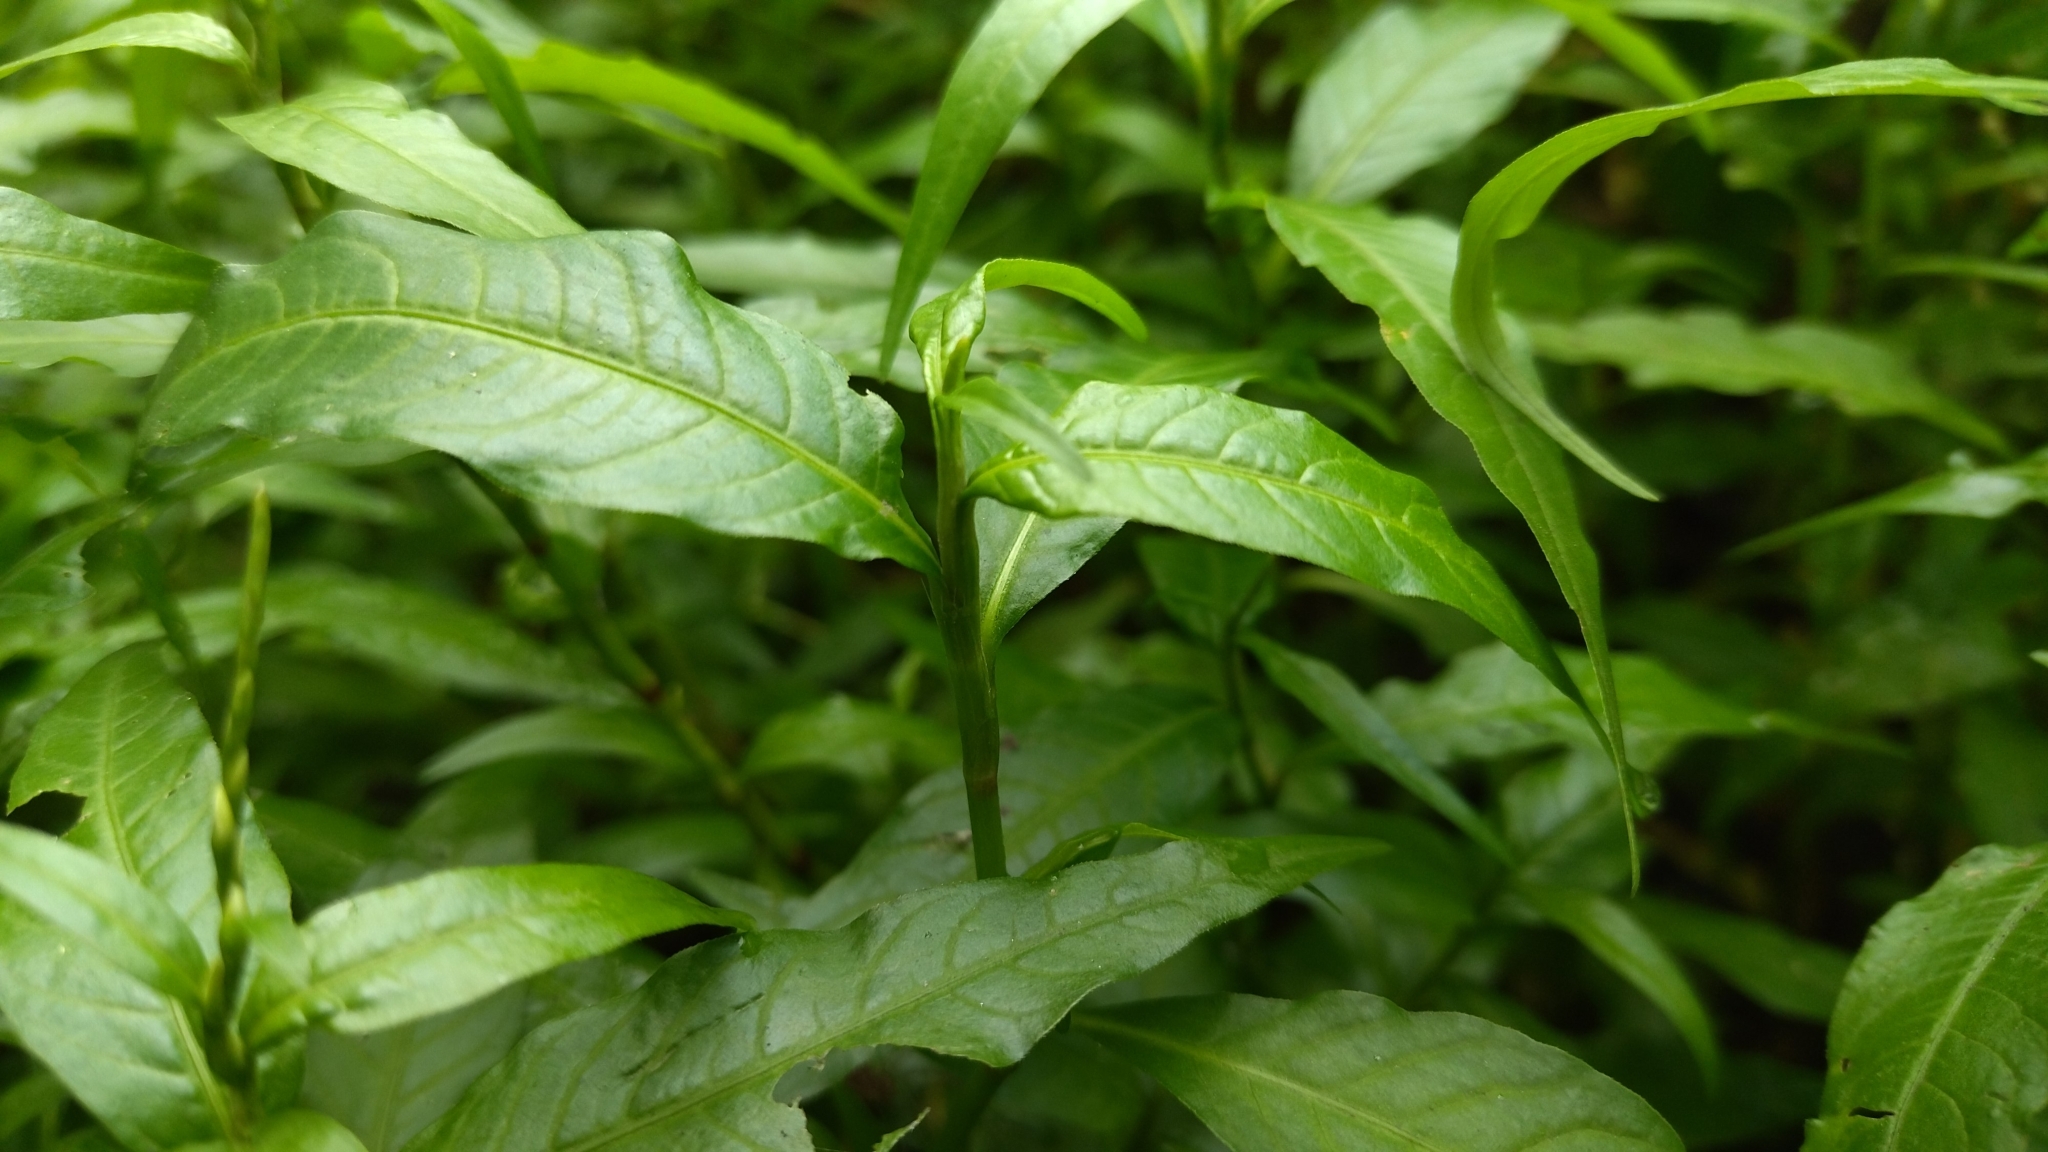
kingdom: Plantae
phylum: Tracheophyta
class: Magnoliopsida
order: Caryophyllales
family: Polygonaceae
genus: Persicaria
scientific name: Persicaria hydropiper
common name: Water-pepper
